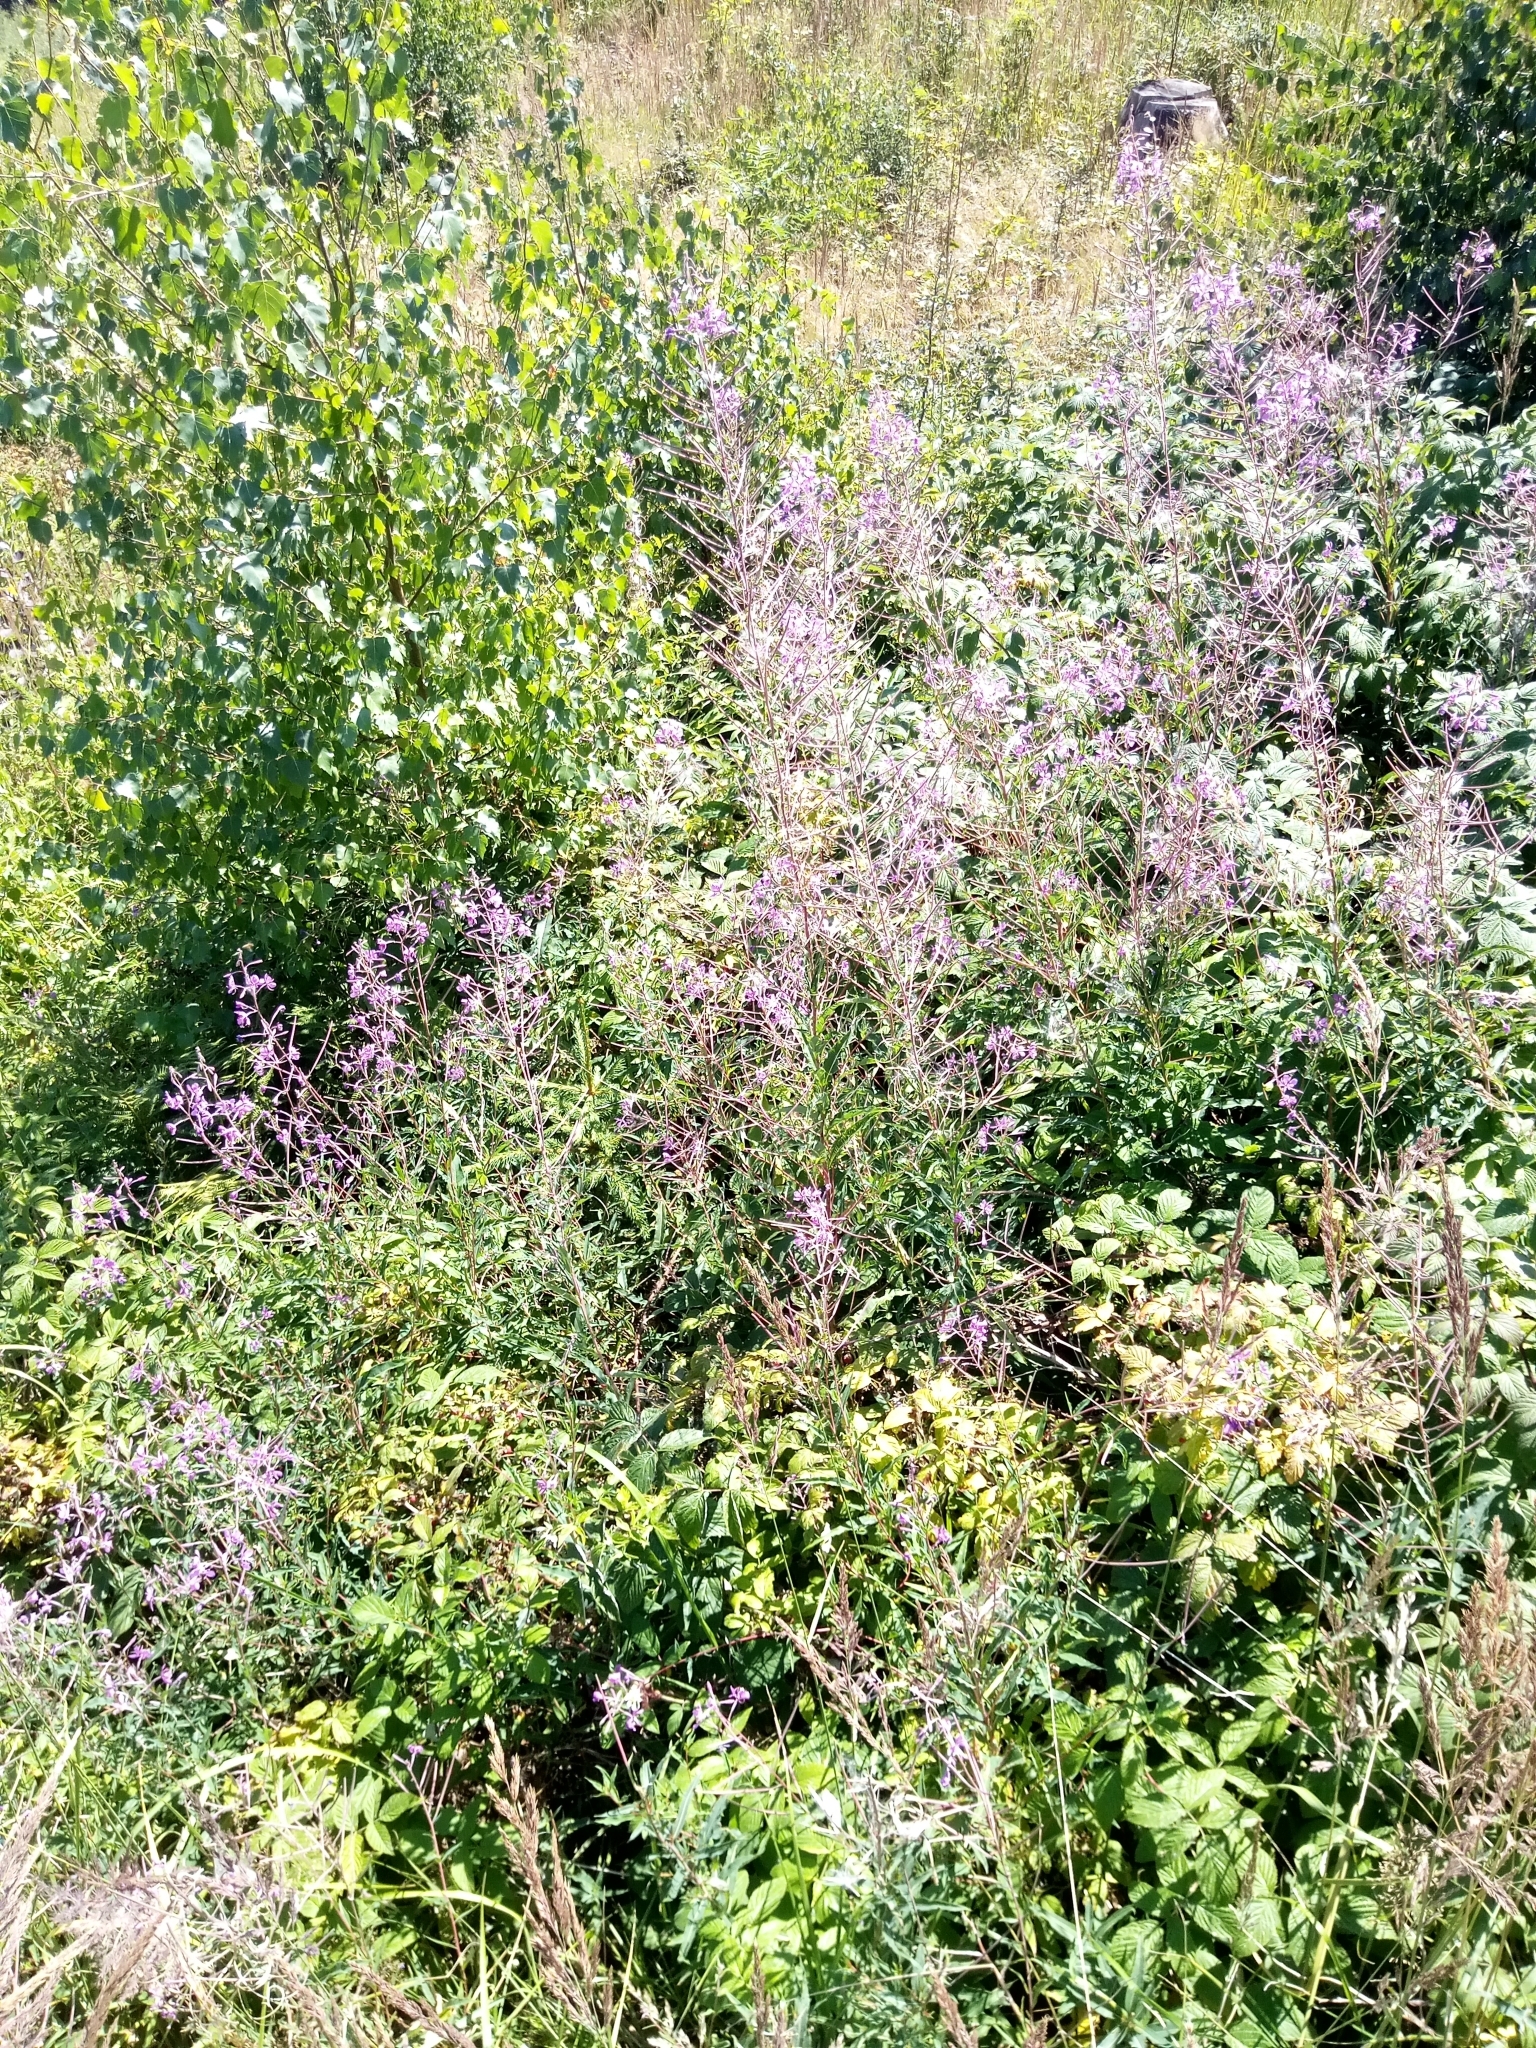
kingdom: Plantae
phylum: Tracheophyta
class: Magnoliopsida
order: Myrtales
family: Onagraceae
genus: Chamaenerion
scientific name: Chamaenerion angustifolium
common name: Fireweed
